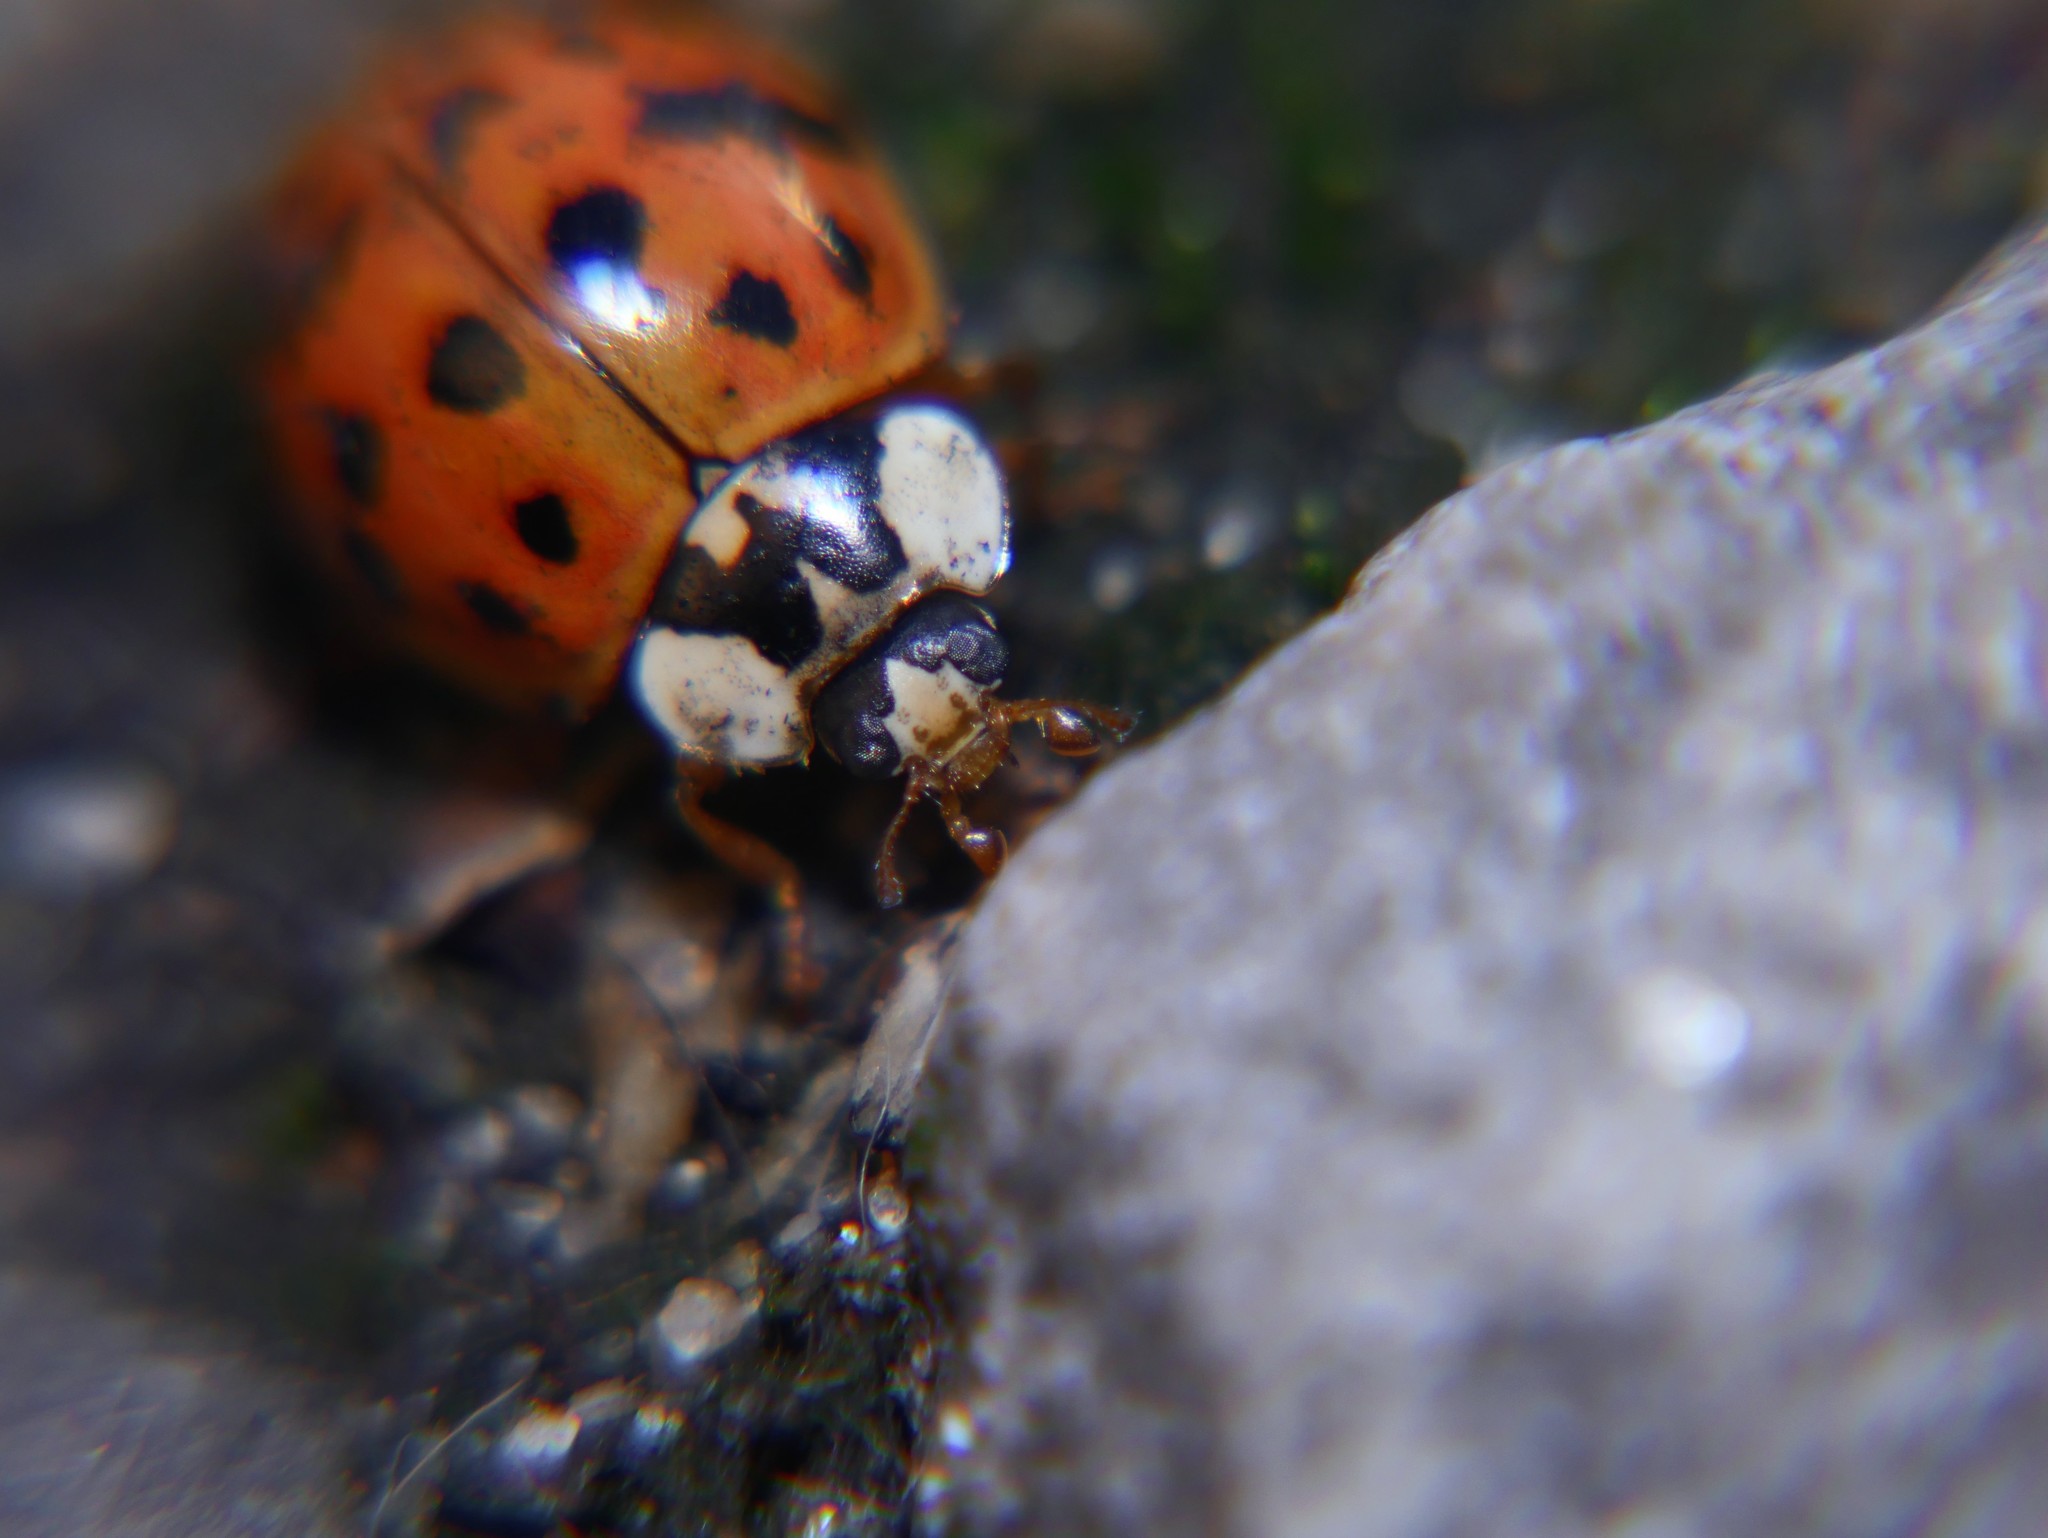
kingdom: Animalia
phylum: Arthropoda
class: Insecta
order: Coleoptera
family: Coccinellidae
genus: Harmonia
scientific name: Harmonia axyridis
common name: Harlequin ladybird
